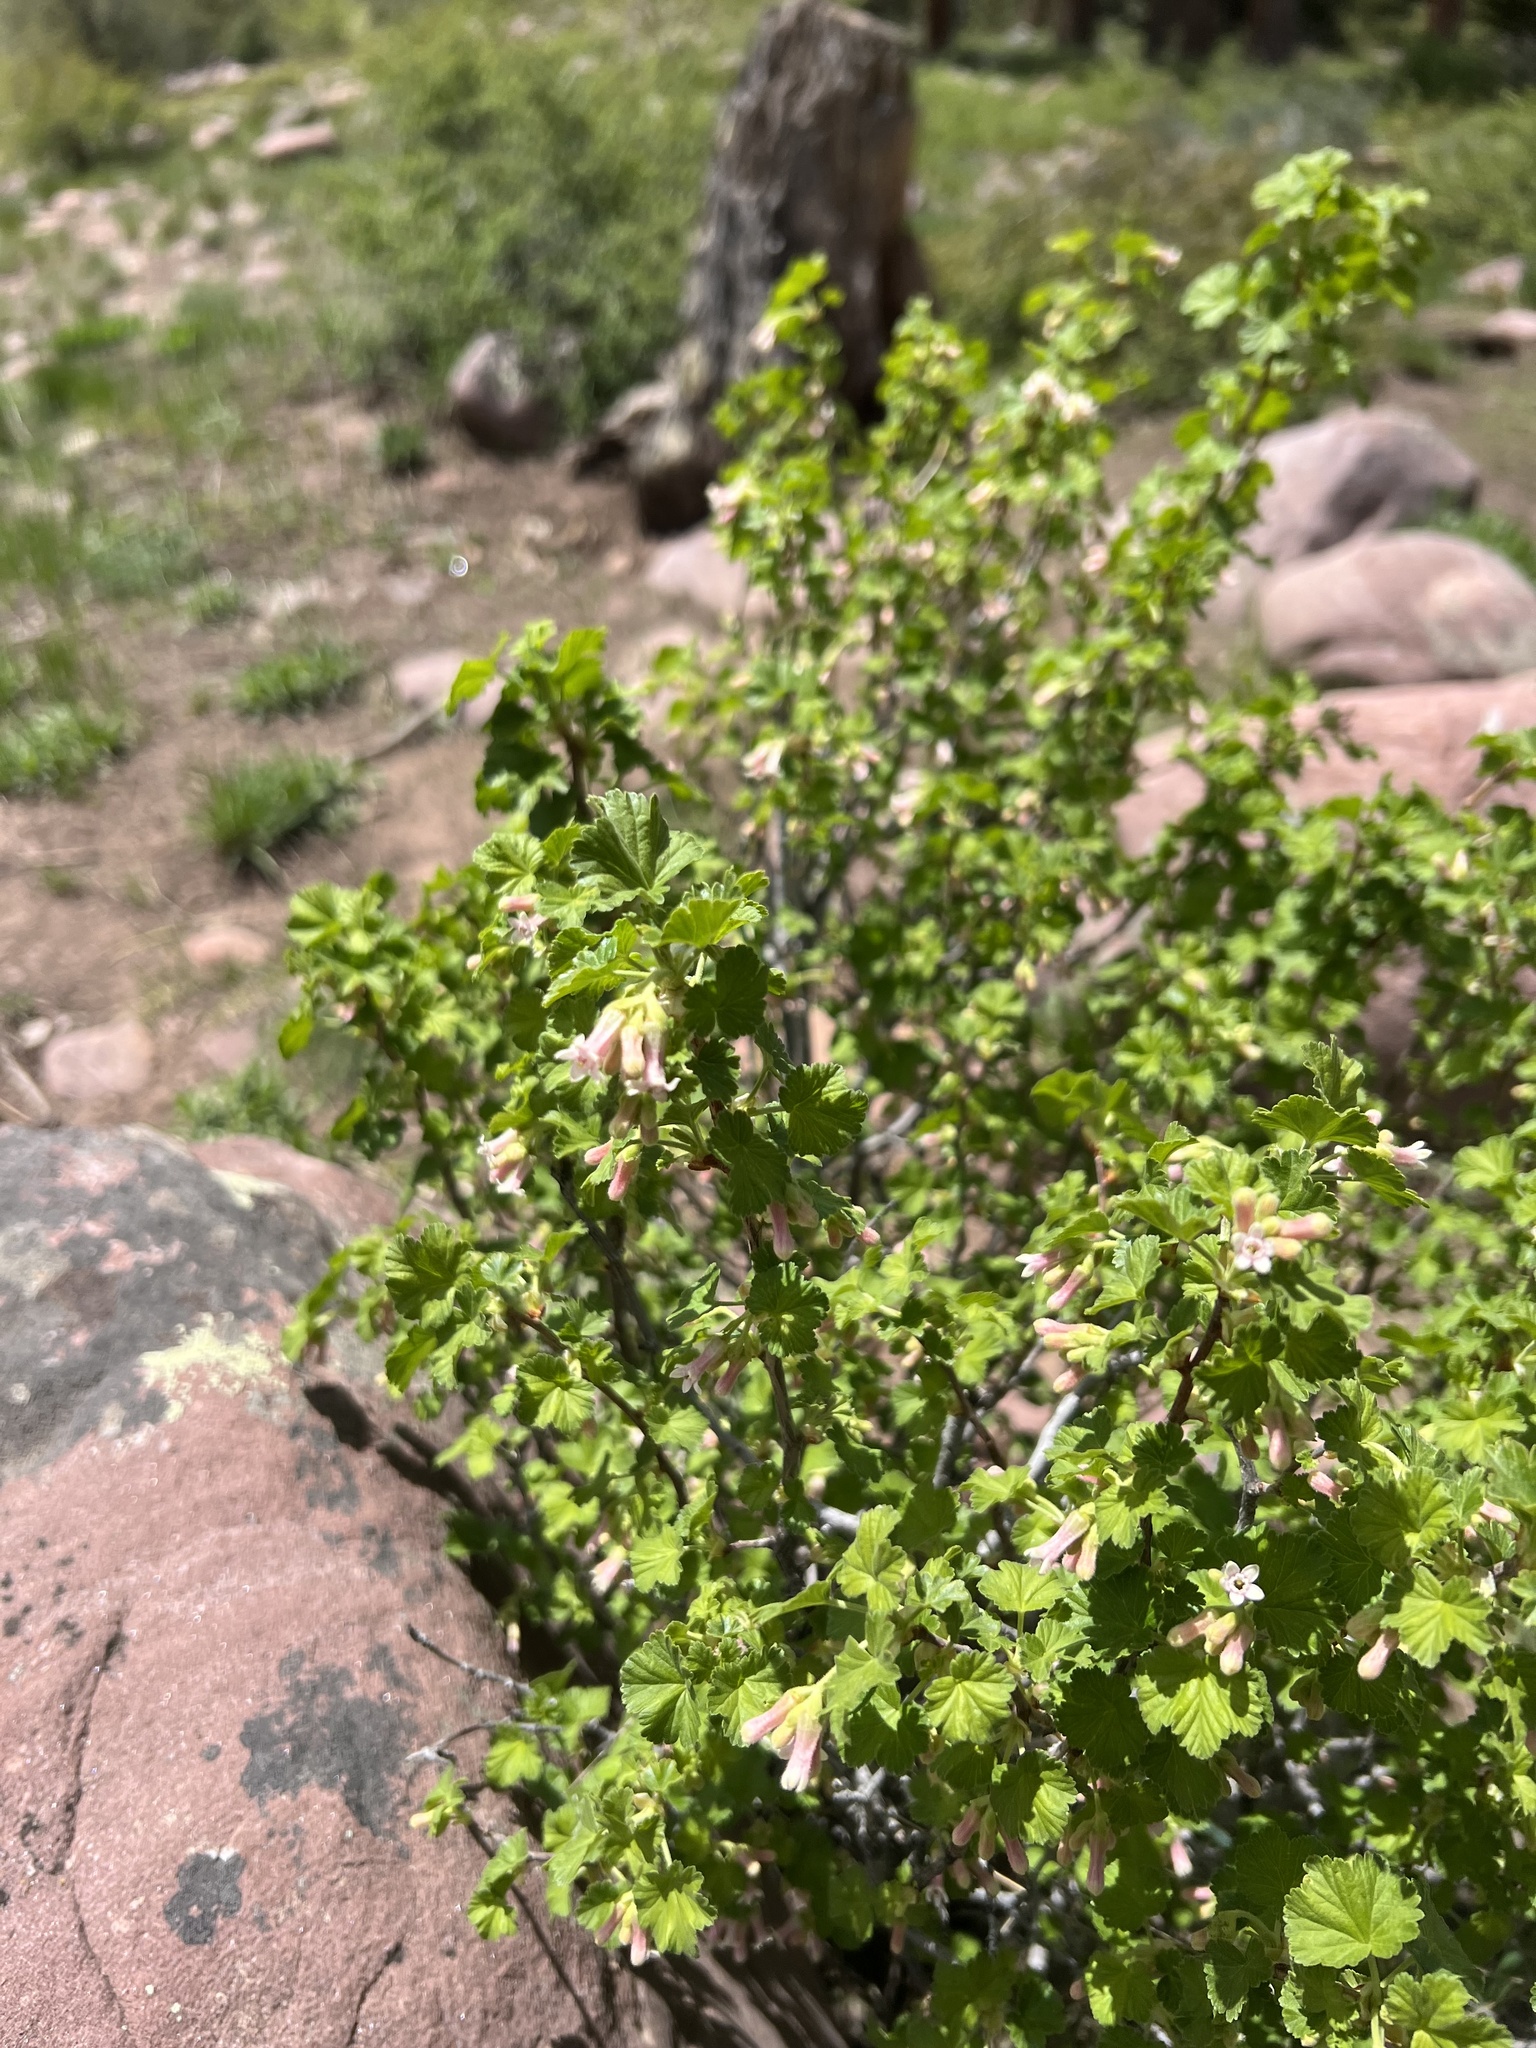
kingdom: Plantae
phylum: Tracheophyta
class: Magnoliopsida
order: Saxifragales
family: Grossulariaceae
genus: Ribes
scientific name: Ribes cereum
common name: Wax currant
